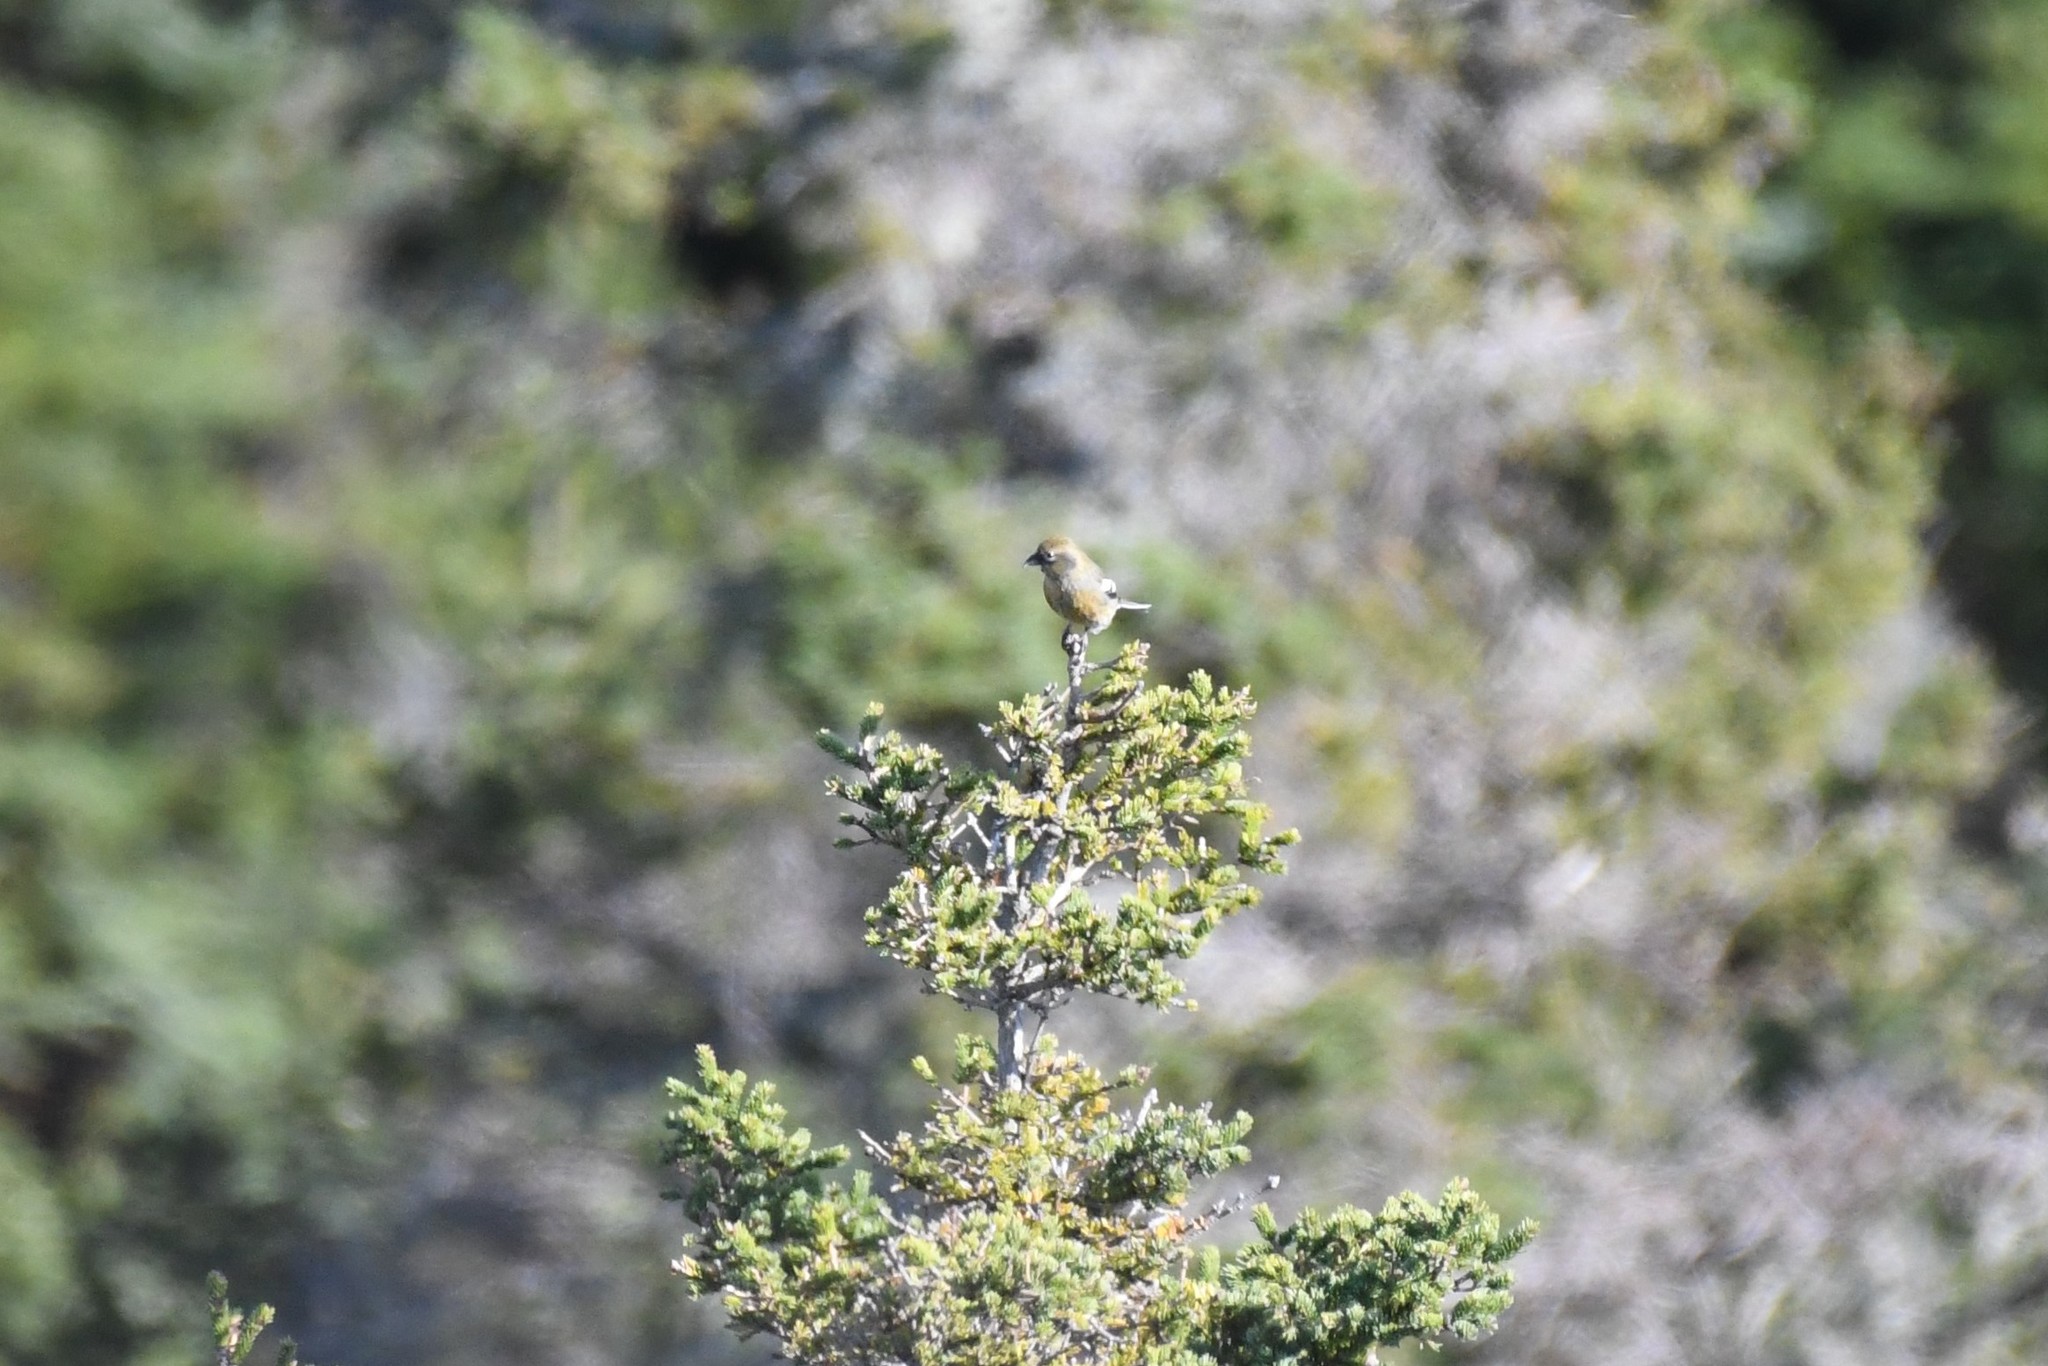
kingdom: Animalia
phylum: Chordata
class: Aves
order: Passeriformes
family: Fringillidae
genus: Loxia
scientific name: Loxia leucoptera
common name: Two-barred crossbill
